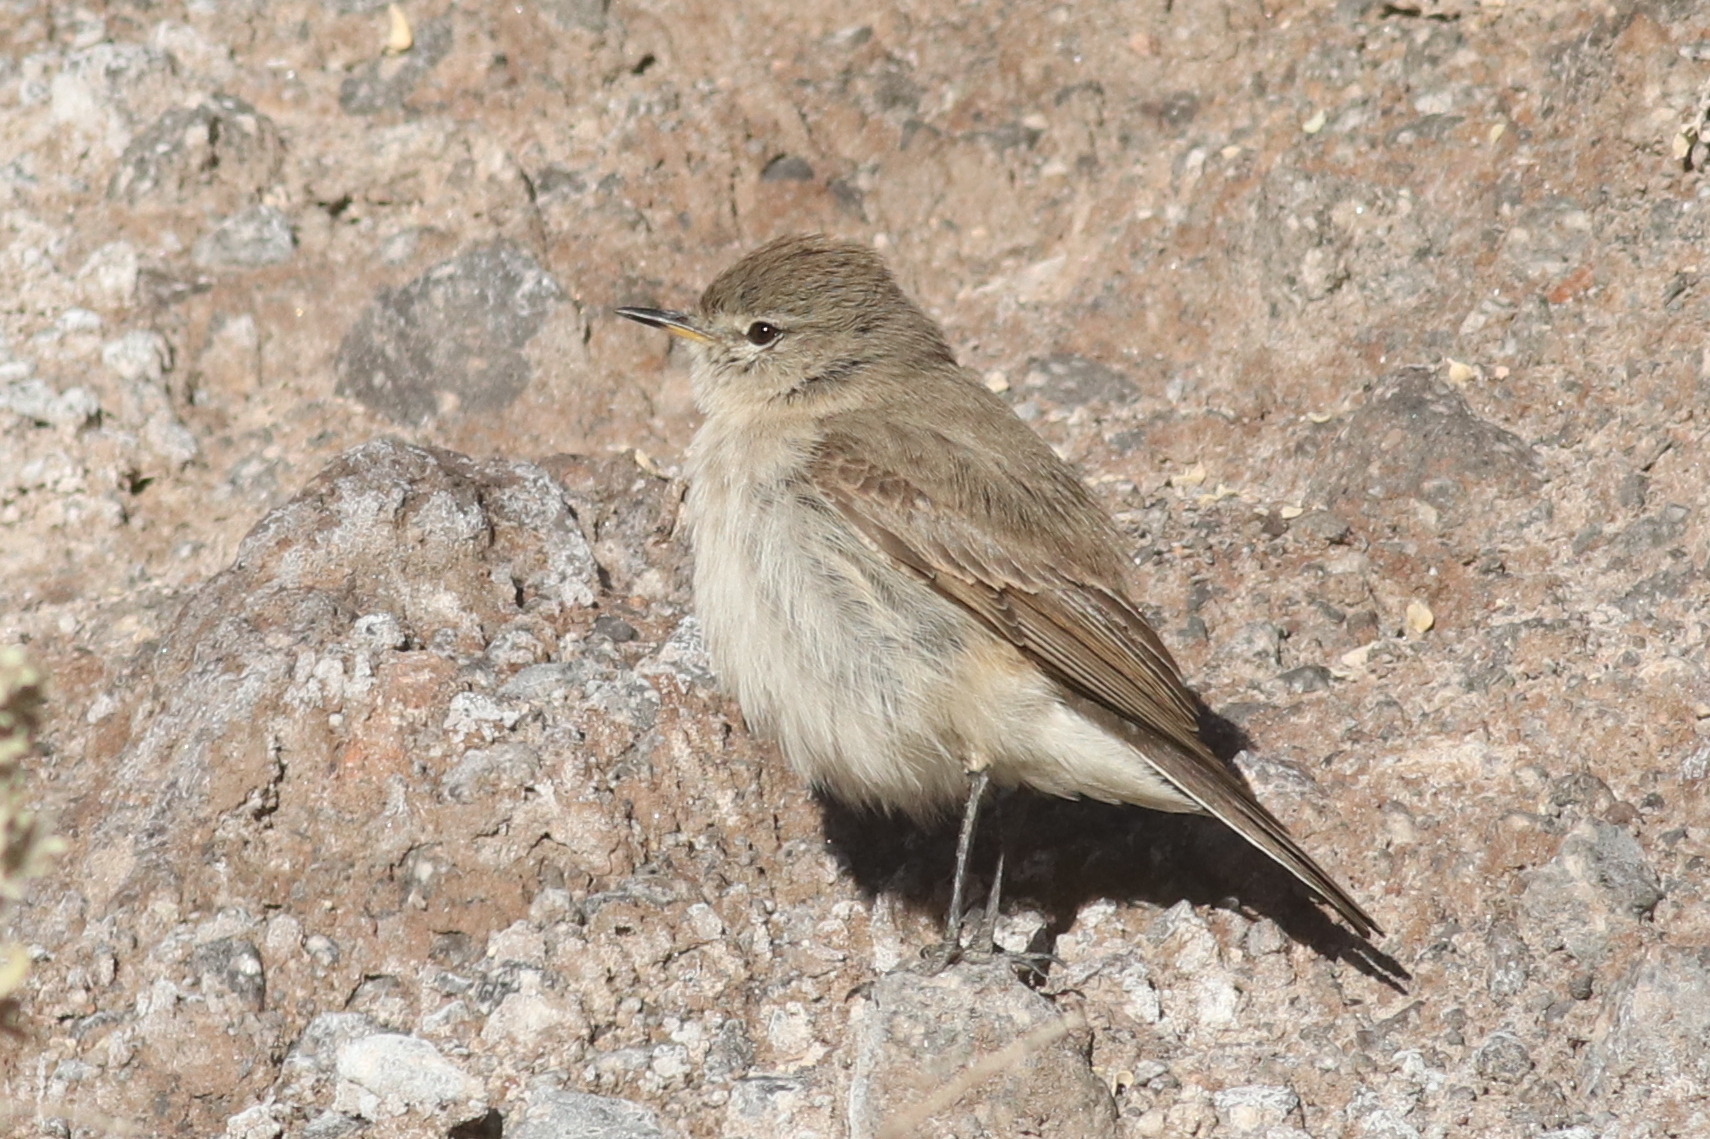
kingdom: Animalia
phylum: Chordata
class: Aves
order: Passeriformes
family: Tyrannidae
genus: Muscisaxicola
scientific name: Muscisaxicola maculirostris
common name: Spot-billed ground tyrant
